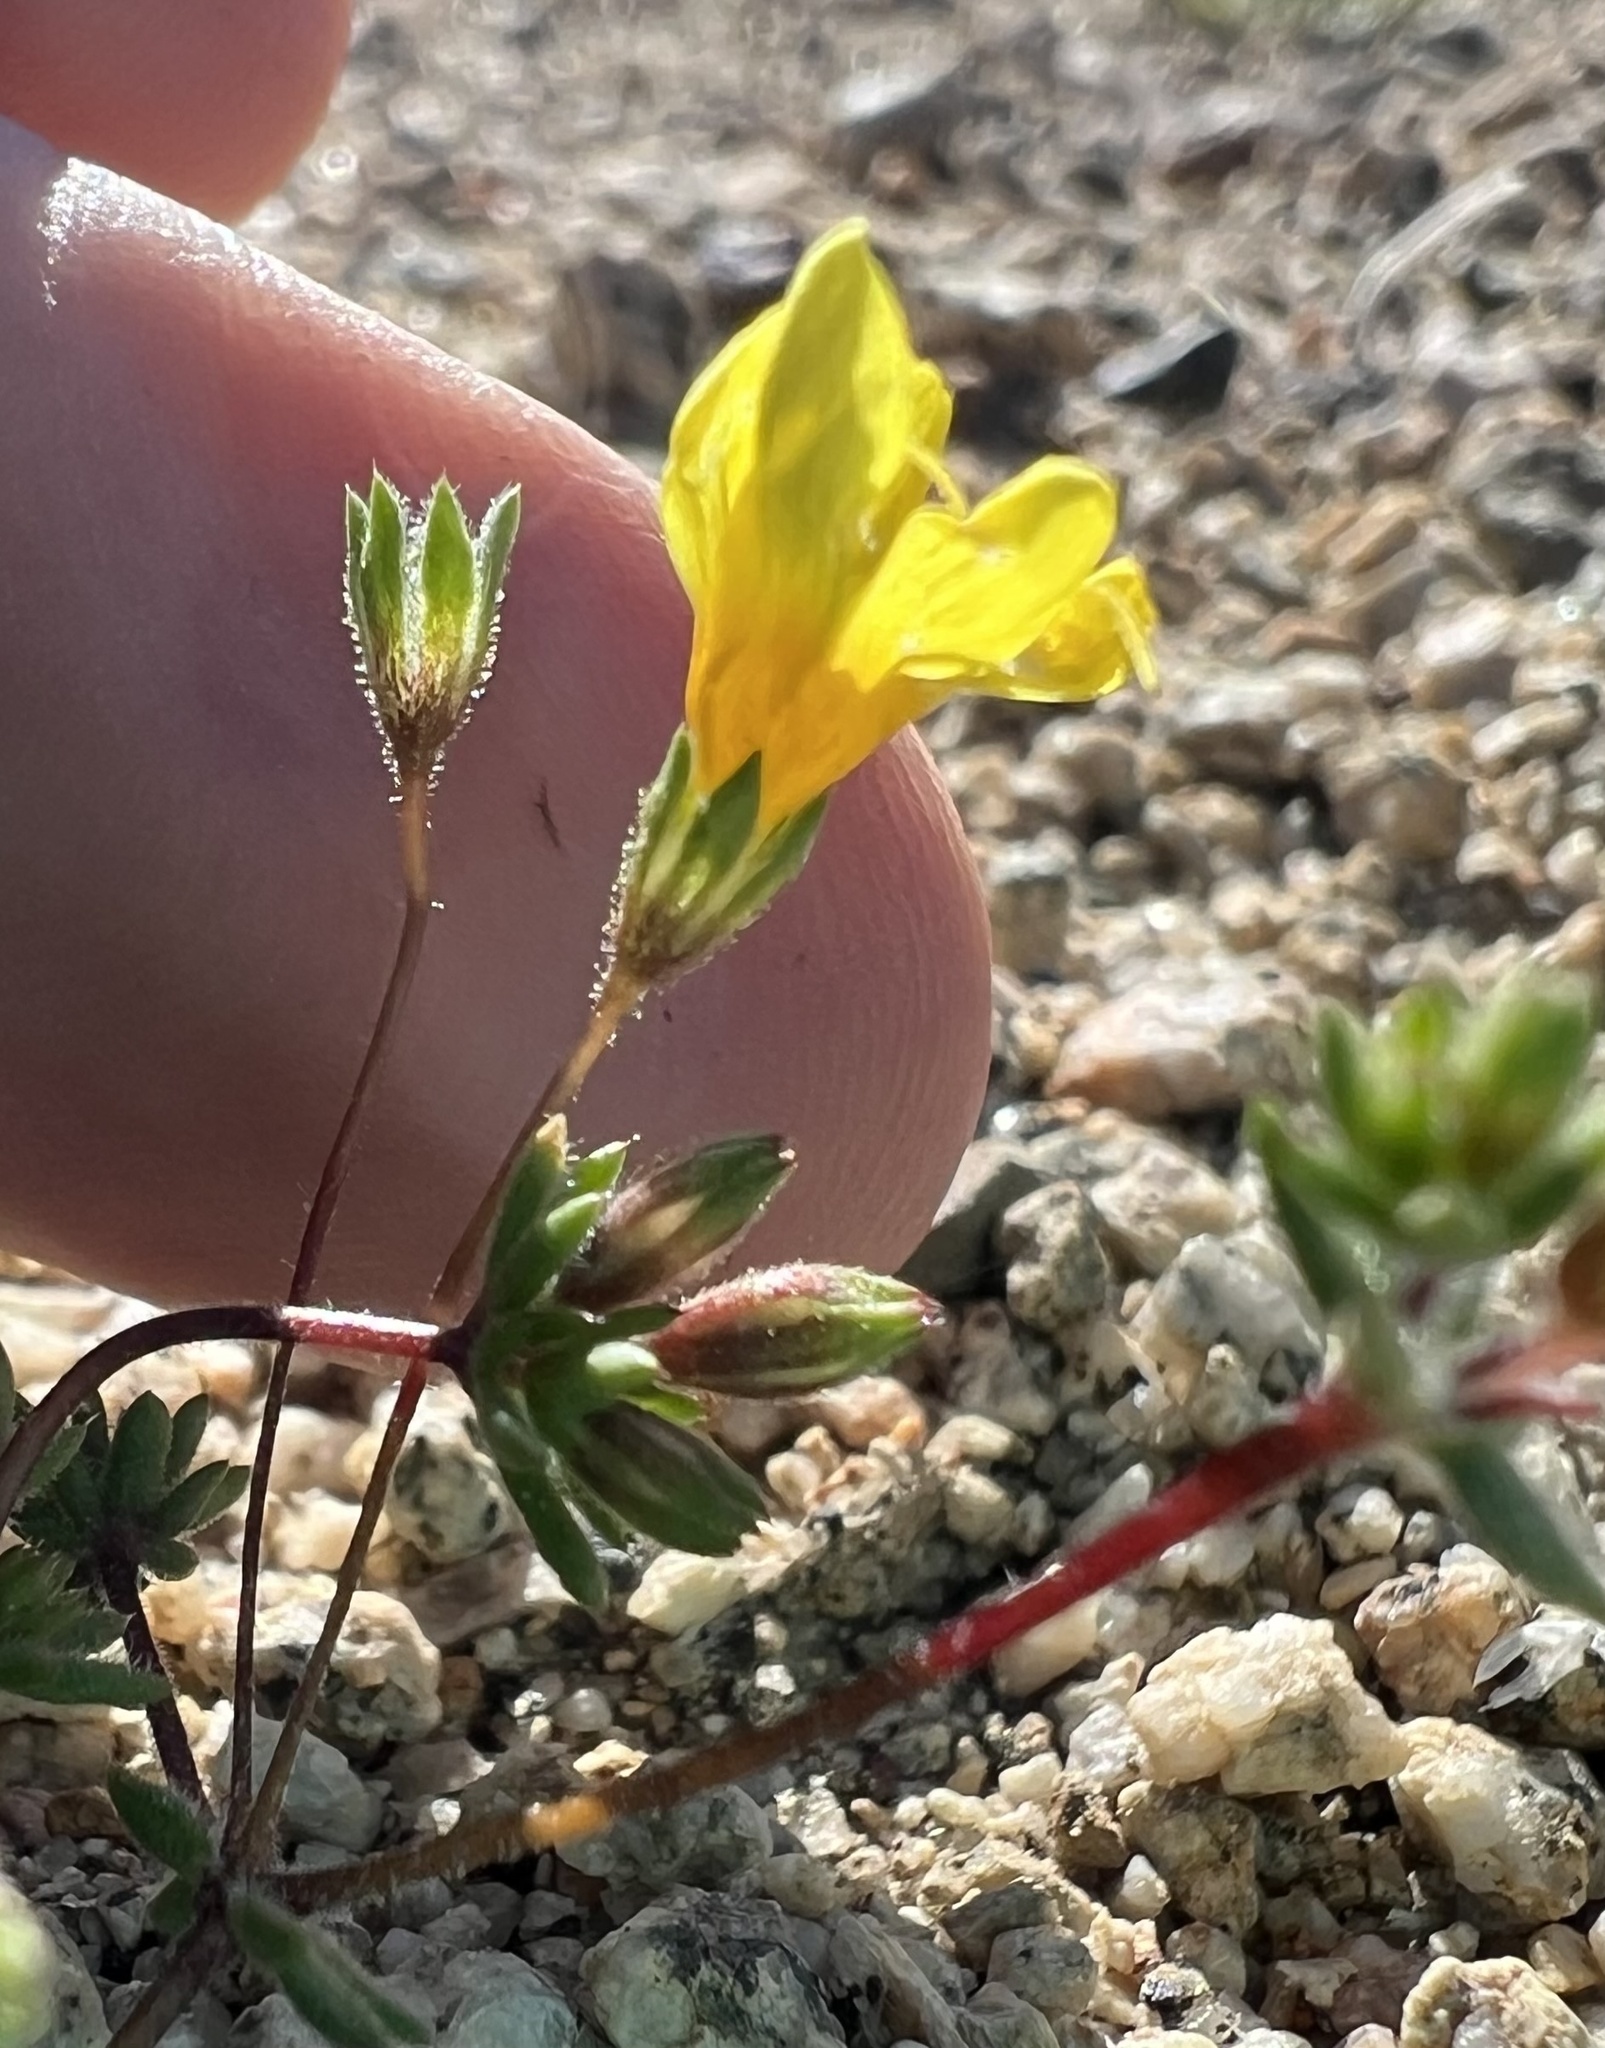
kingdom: Plantae
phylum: Tracheophyta
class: Magnoliopsida
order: Ericales
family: Polemoniaceae
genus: Leptosiphon
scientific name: Leptosiphon chrysanthus
